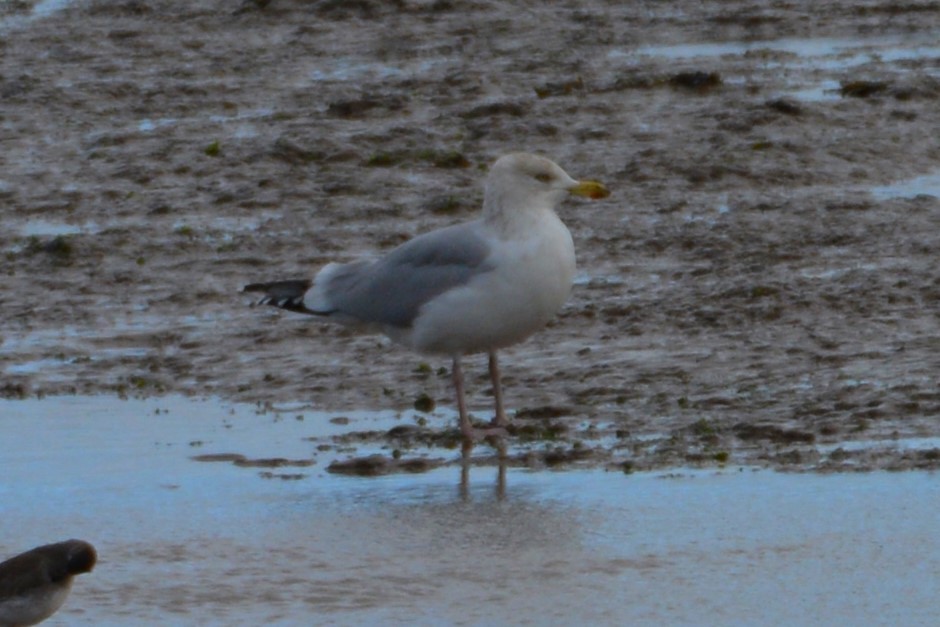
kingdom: Animalia
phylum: Chordata
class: Aves
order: Charadriiformes
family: Laridae
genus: Larus
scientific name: Larus argentatus
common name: Herring gull
